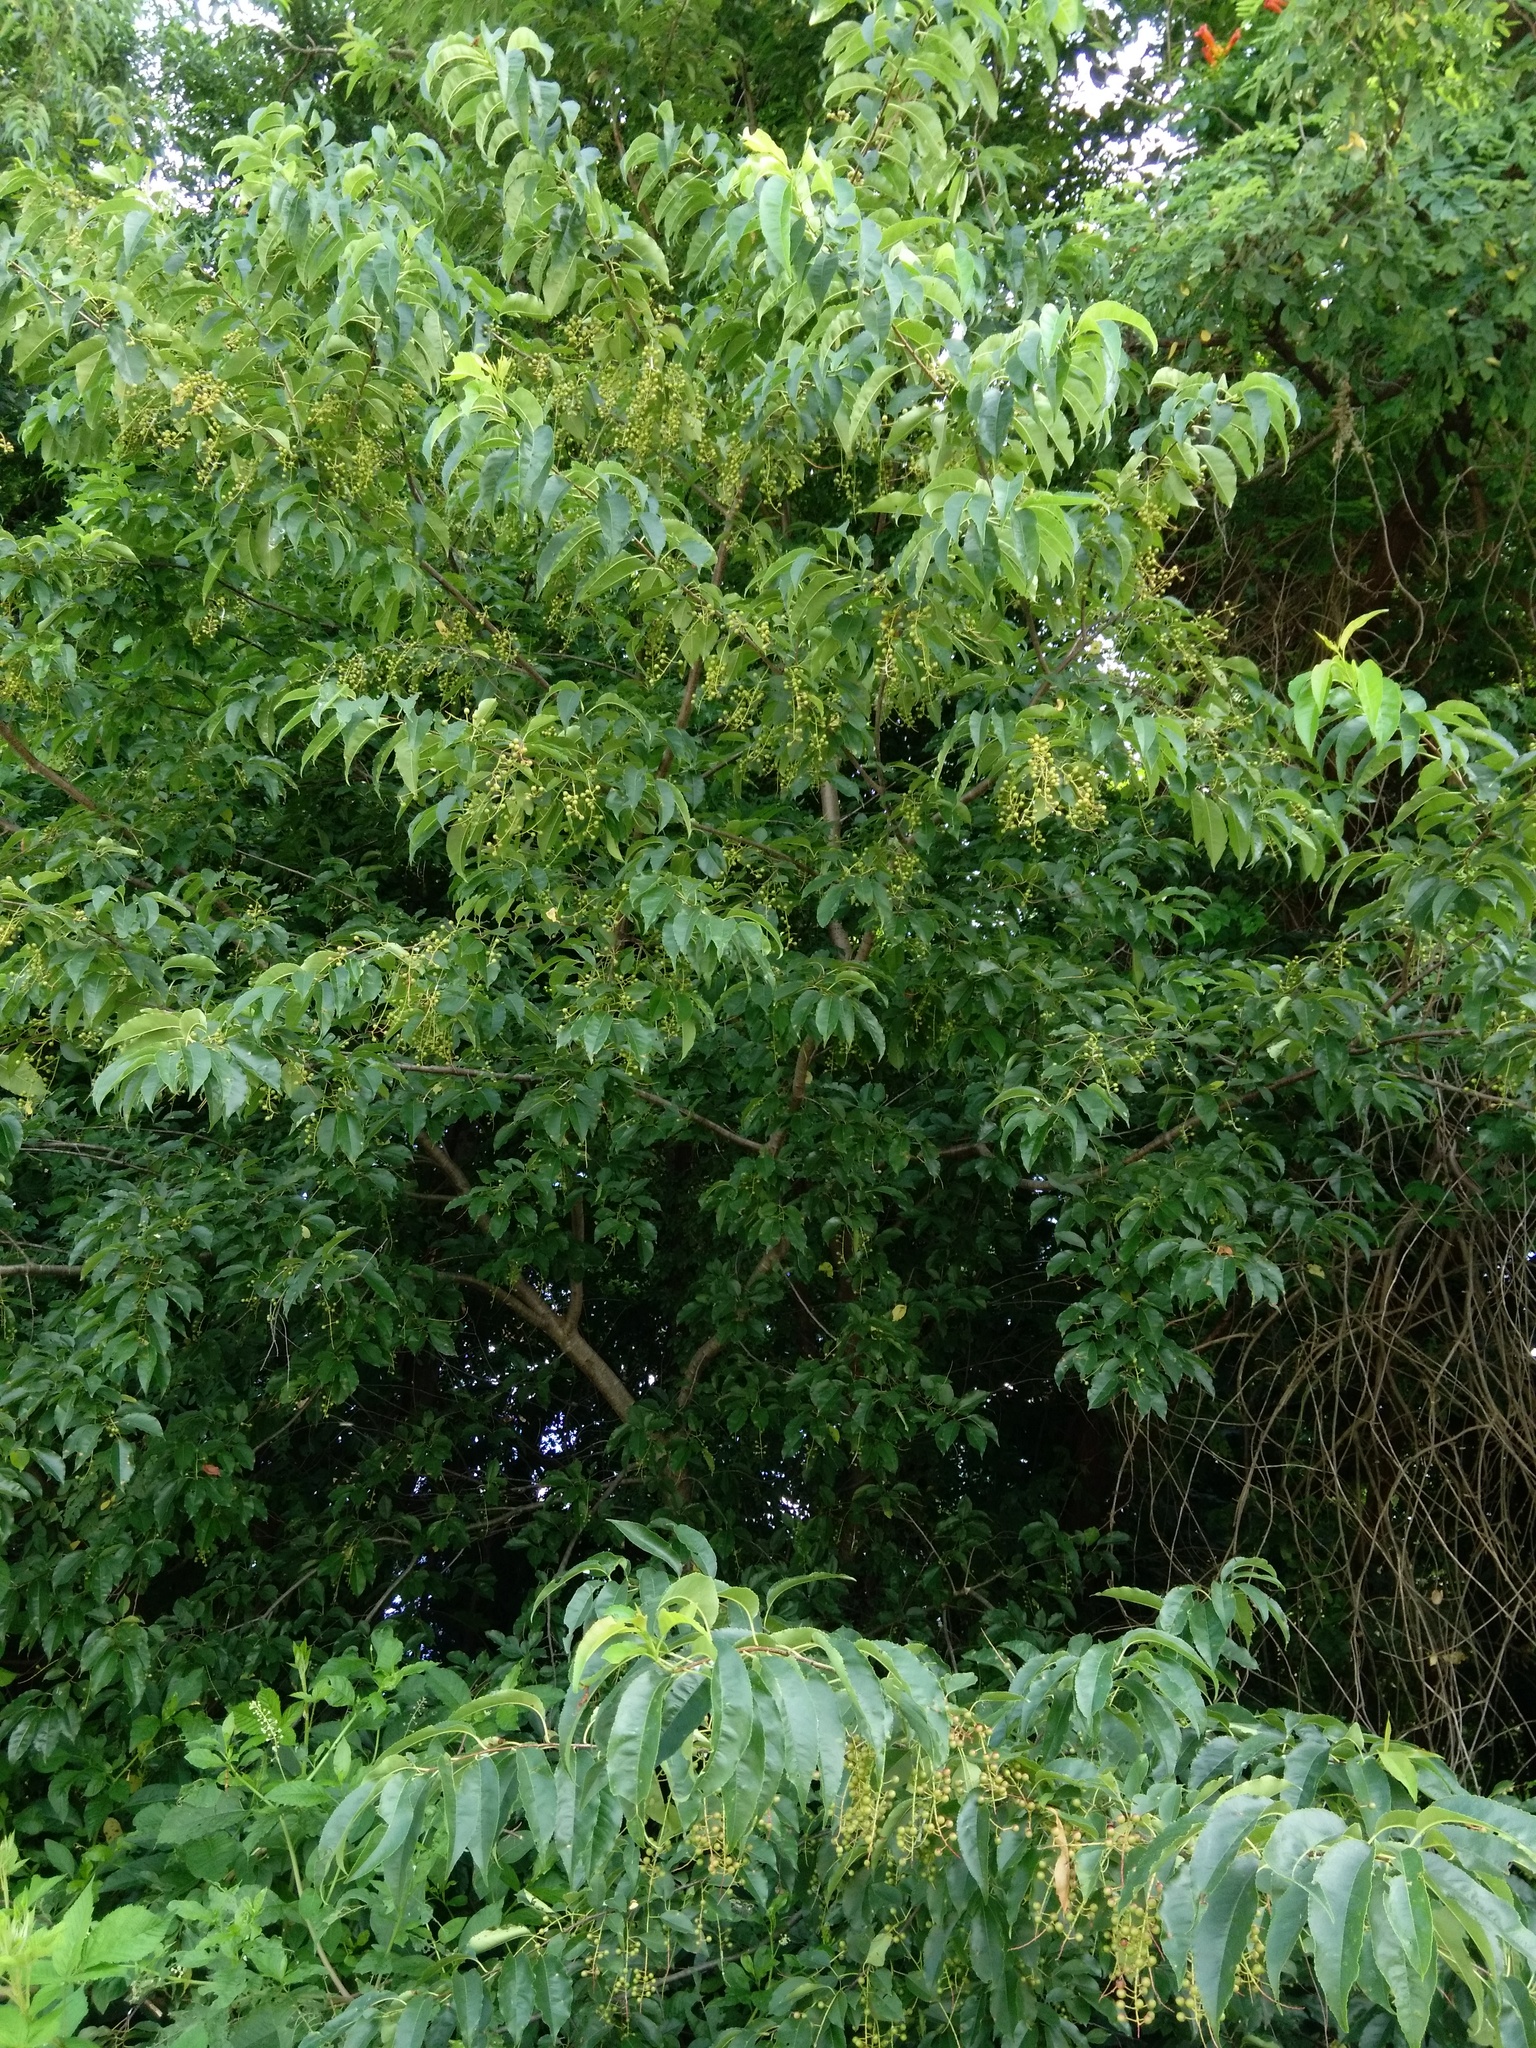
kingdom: Plantae
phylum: Tracheophyta
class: Magnoliopsida
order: Rosales
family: Rosaceae
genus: Prunus
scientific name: Prunus serotina
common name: Black cherry
